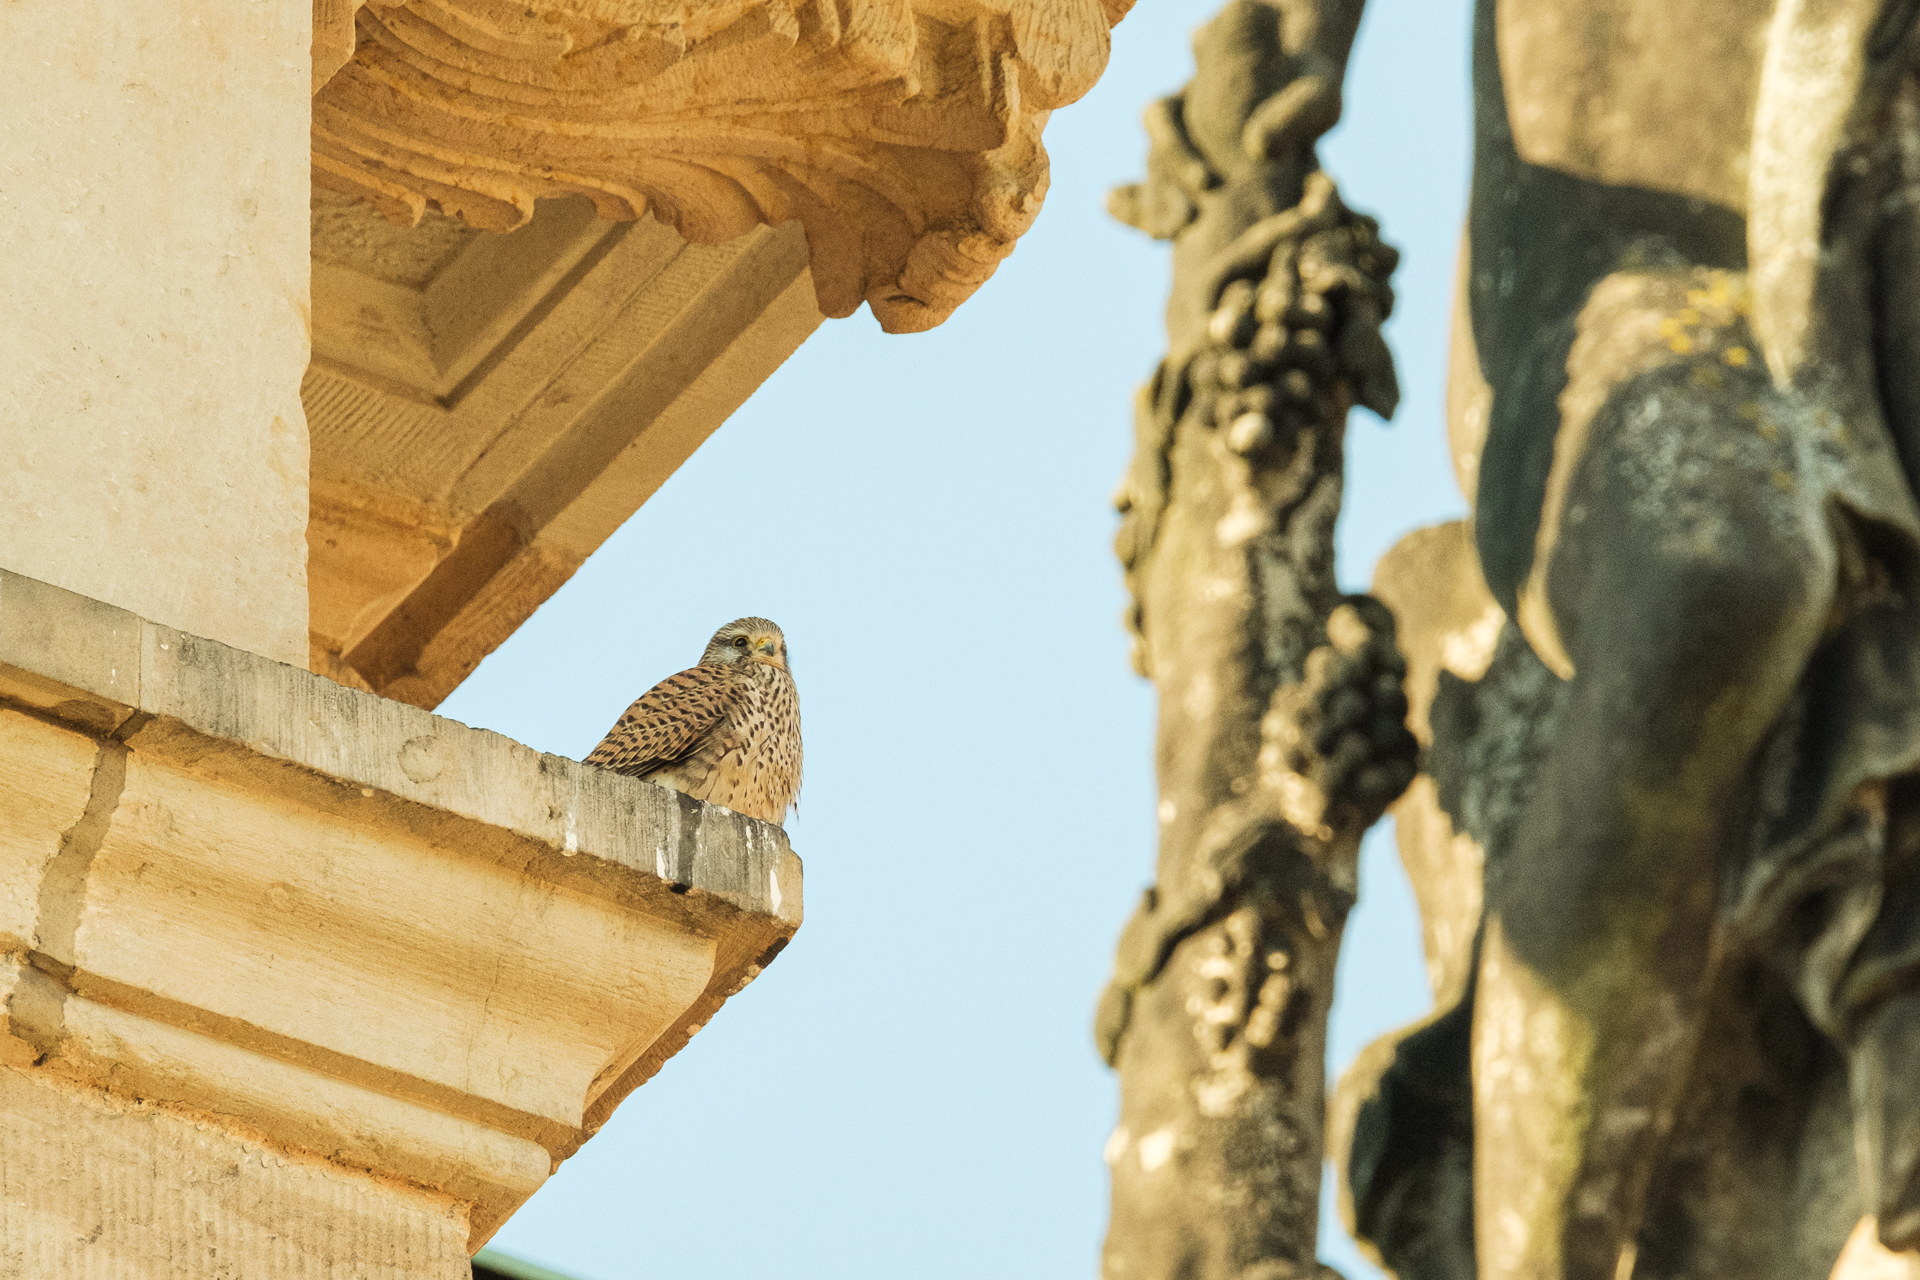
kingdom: Animalia
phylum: Chordata
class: Aves
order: Falconiformes
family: Falconidae
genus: Falco
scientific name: Falco tinnunculus
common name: Common kestrel
